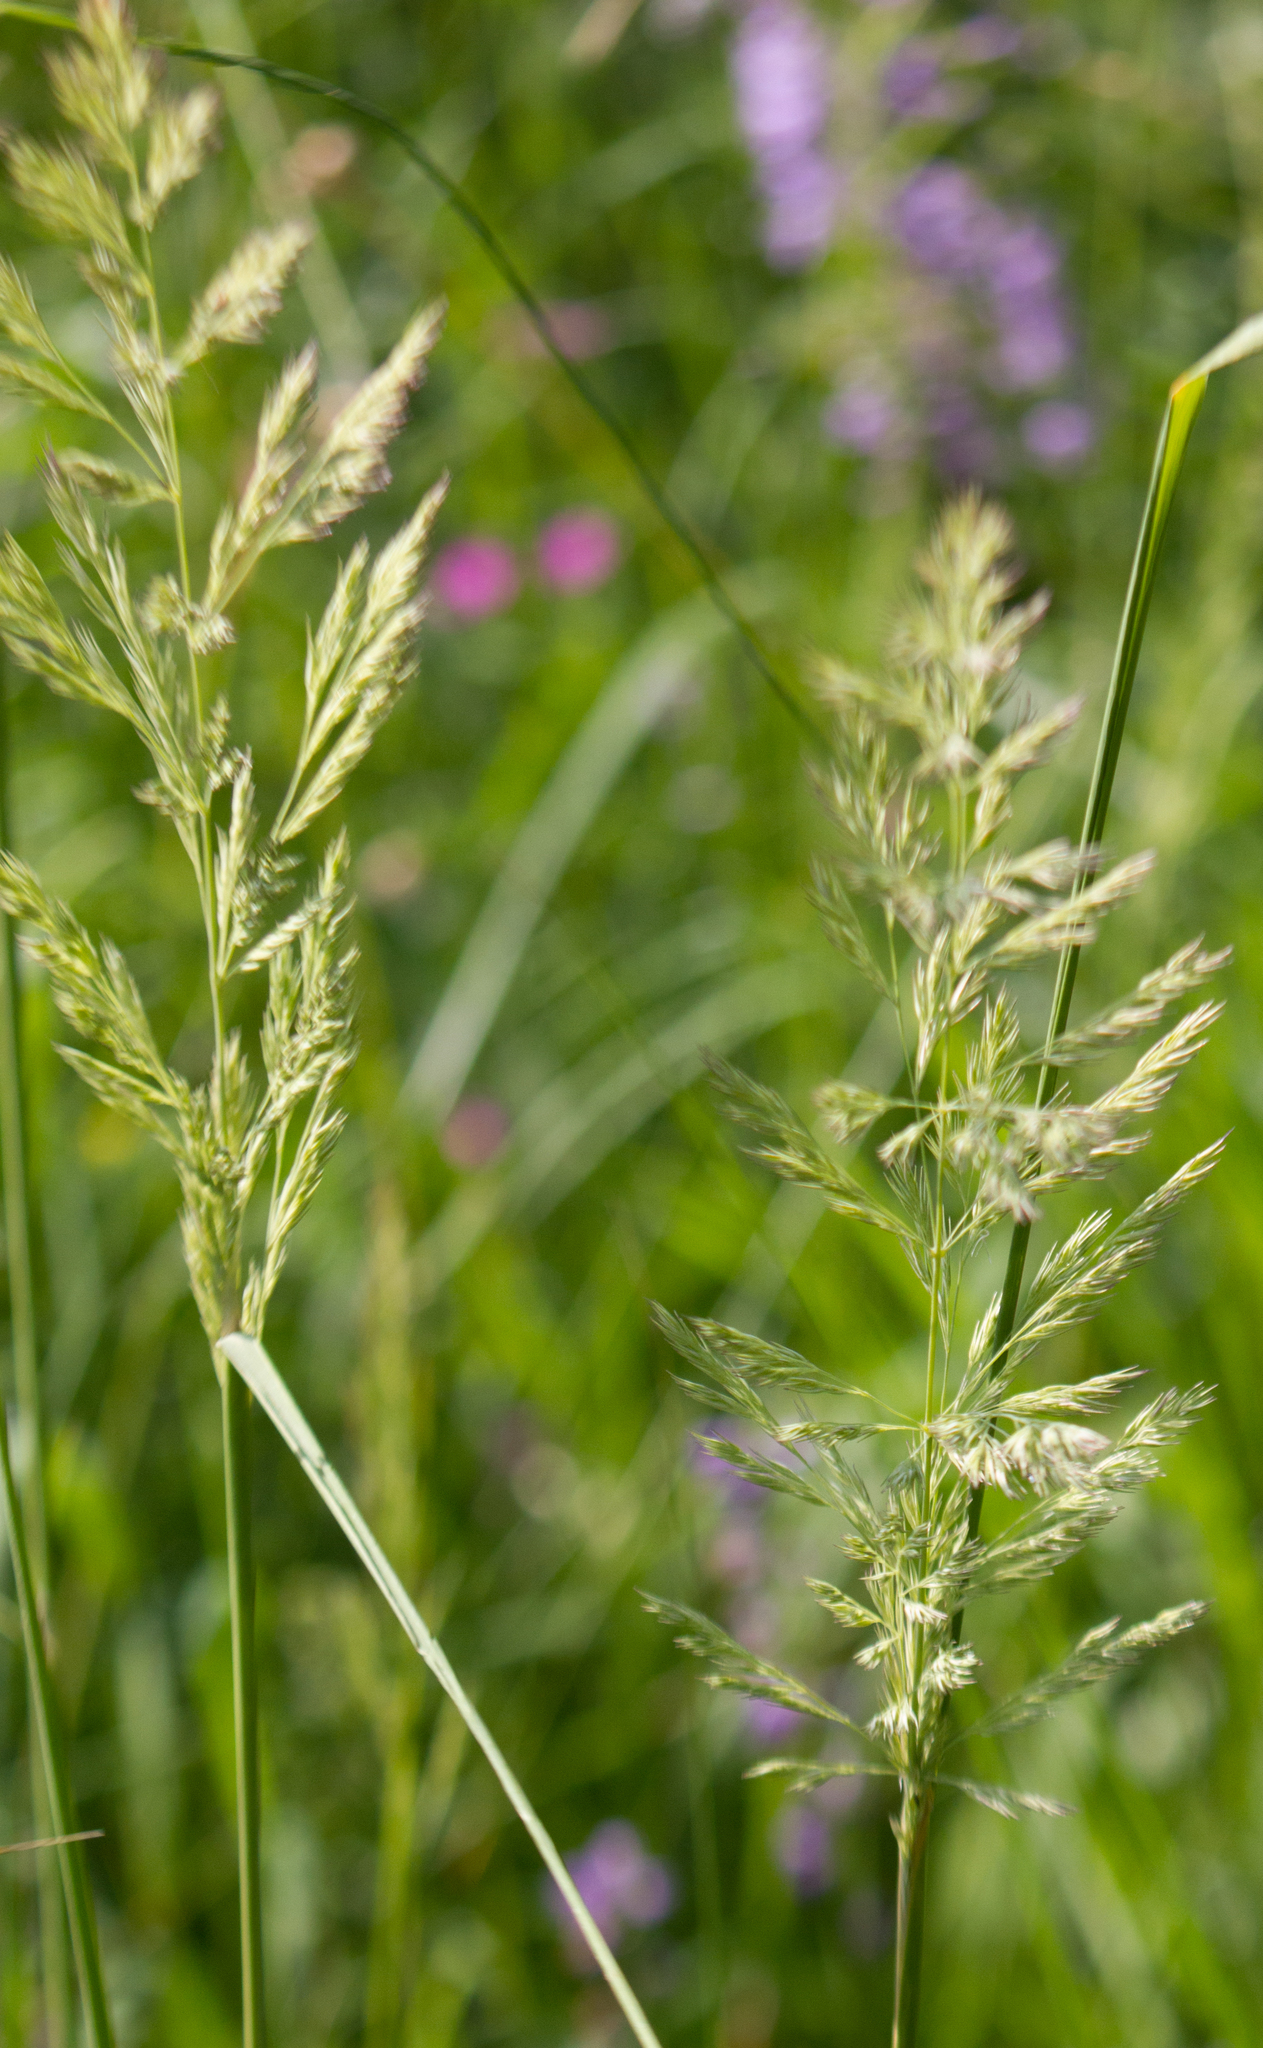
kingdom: Plantae
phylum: Tracheophyta
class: Liliopsida
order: Poales
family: Poaceae
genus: Calamagrostis
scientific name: Calamagrostis epigejos
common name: Wood small-reed
